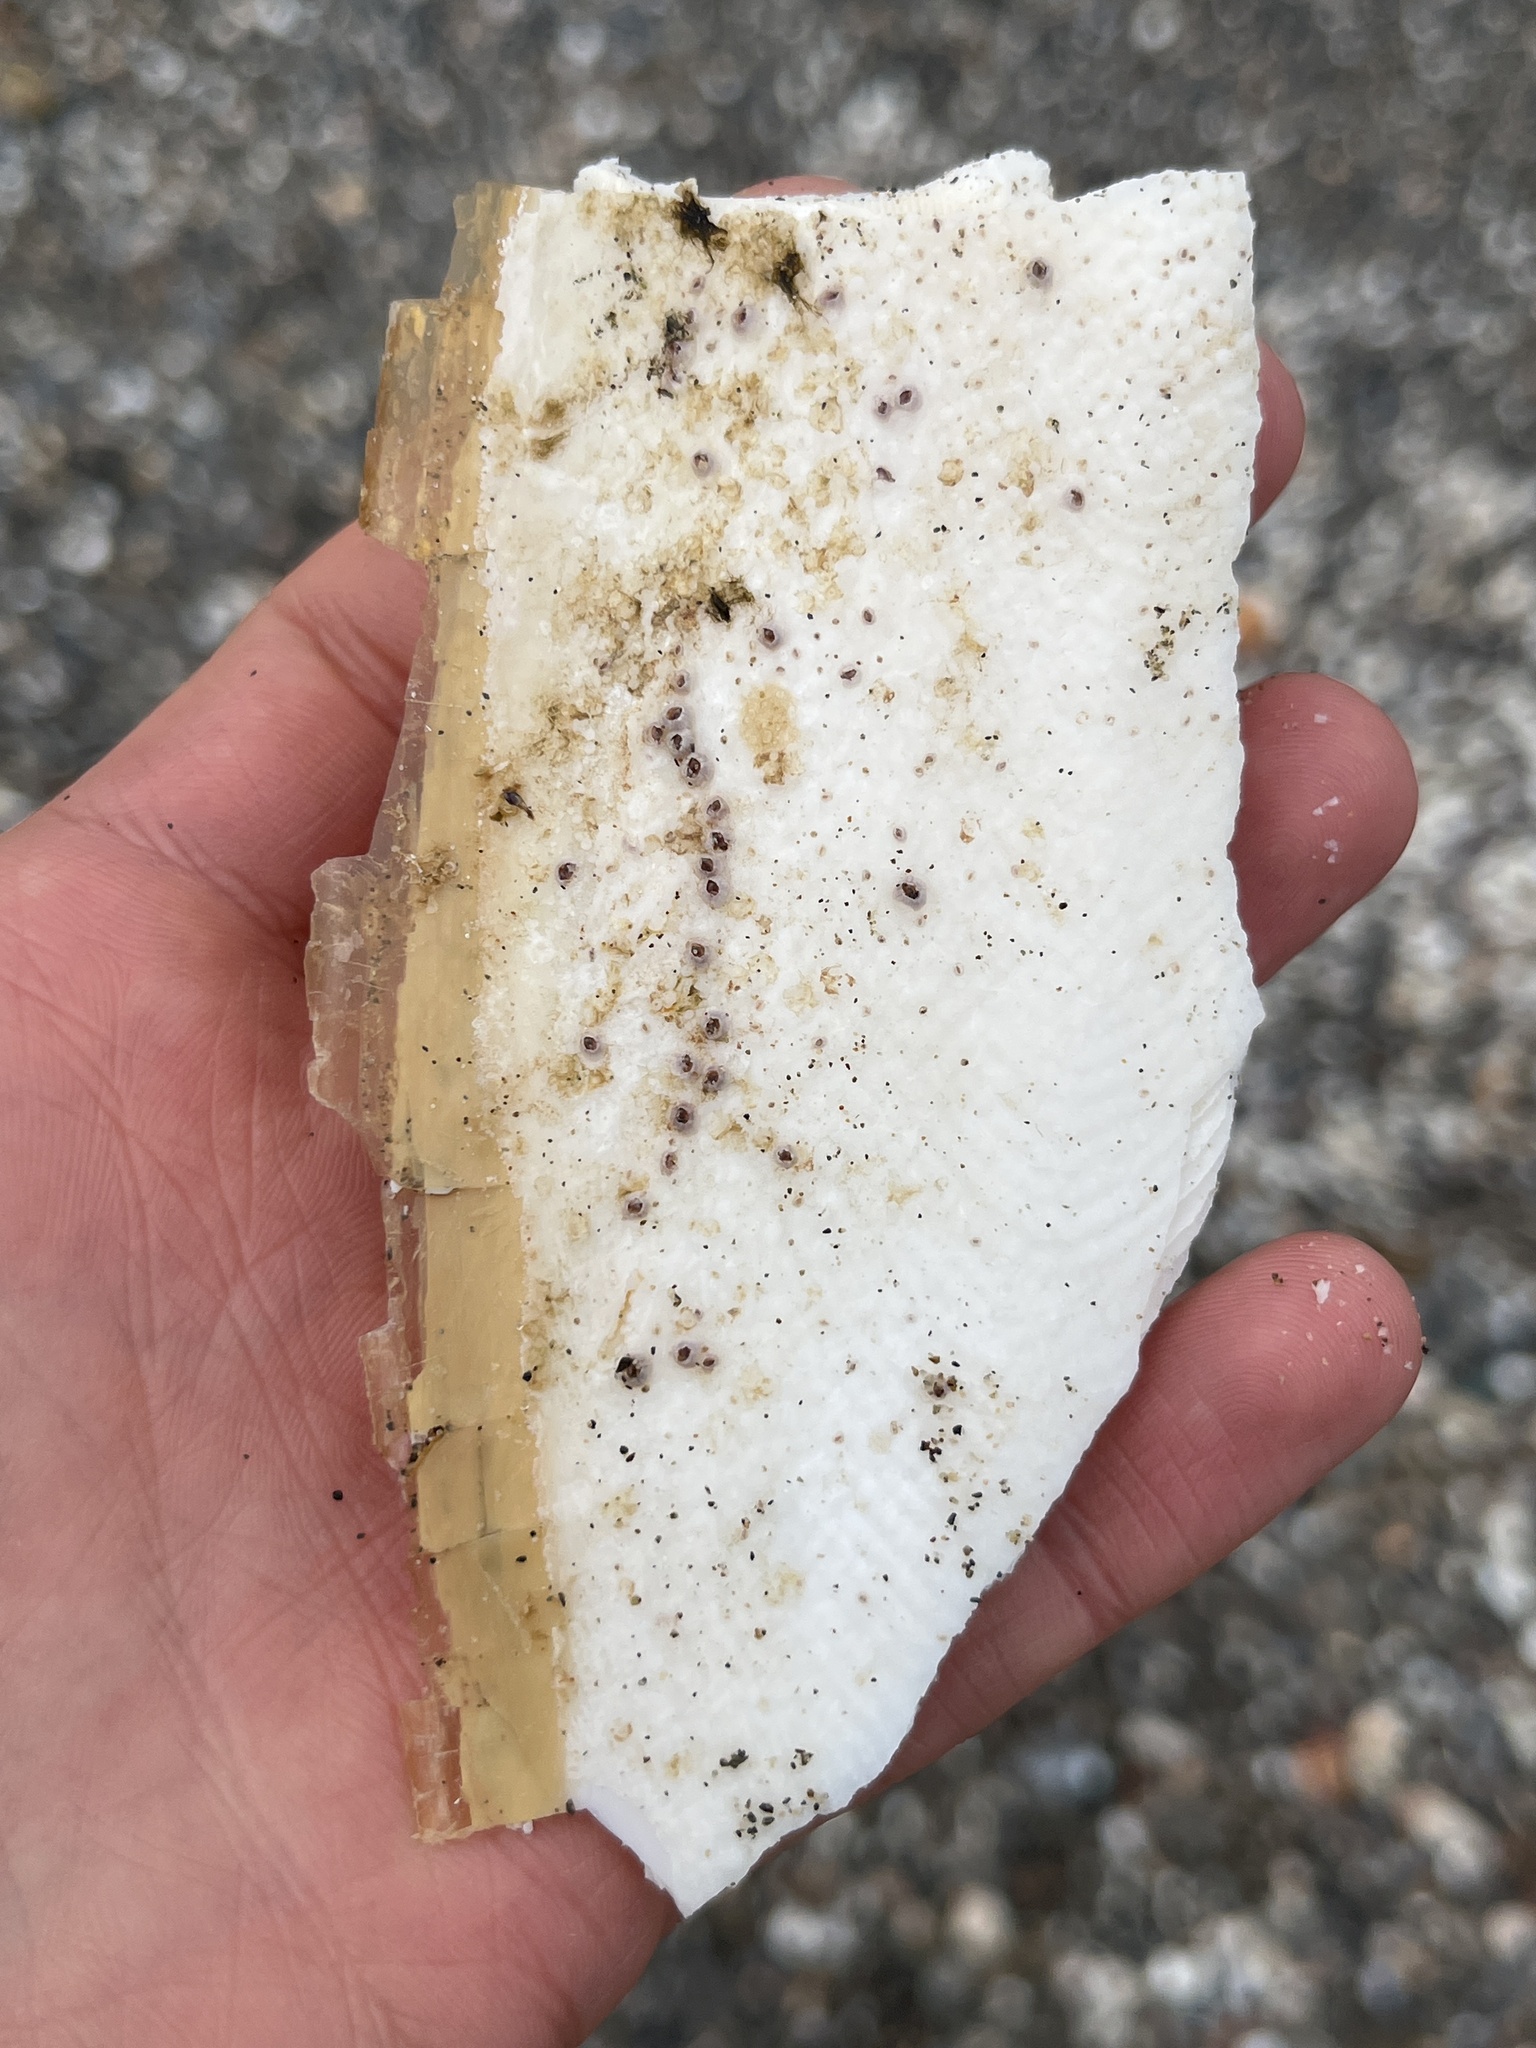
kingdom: Animalia
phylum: Mollusca
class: Cephalopoda
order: Sepiida
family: Sepiidae
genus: Sepia
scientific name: Sepia officinalis
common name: Common cuttlefish
